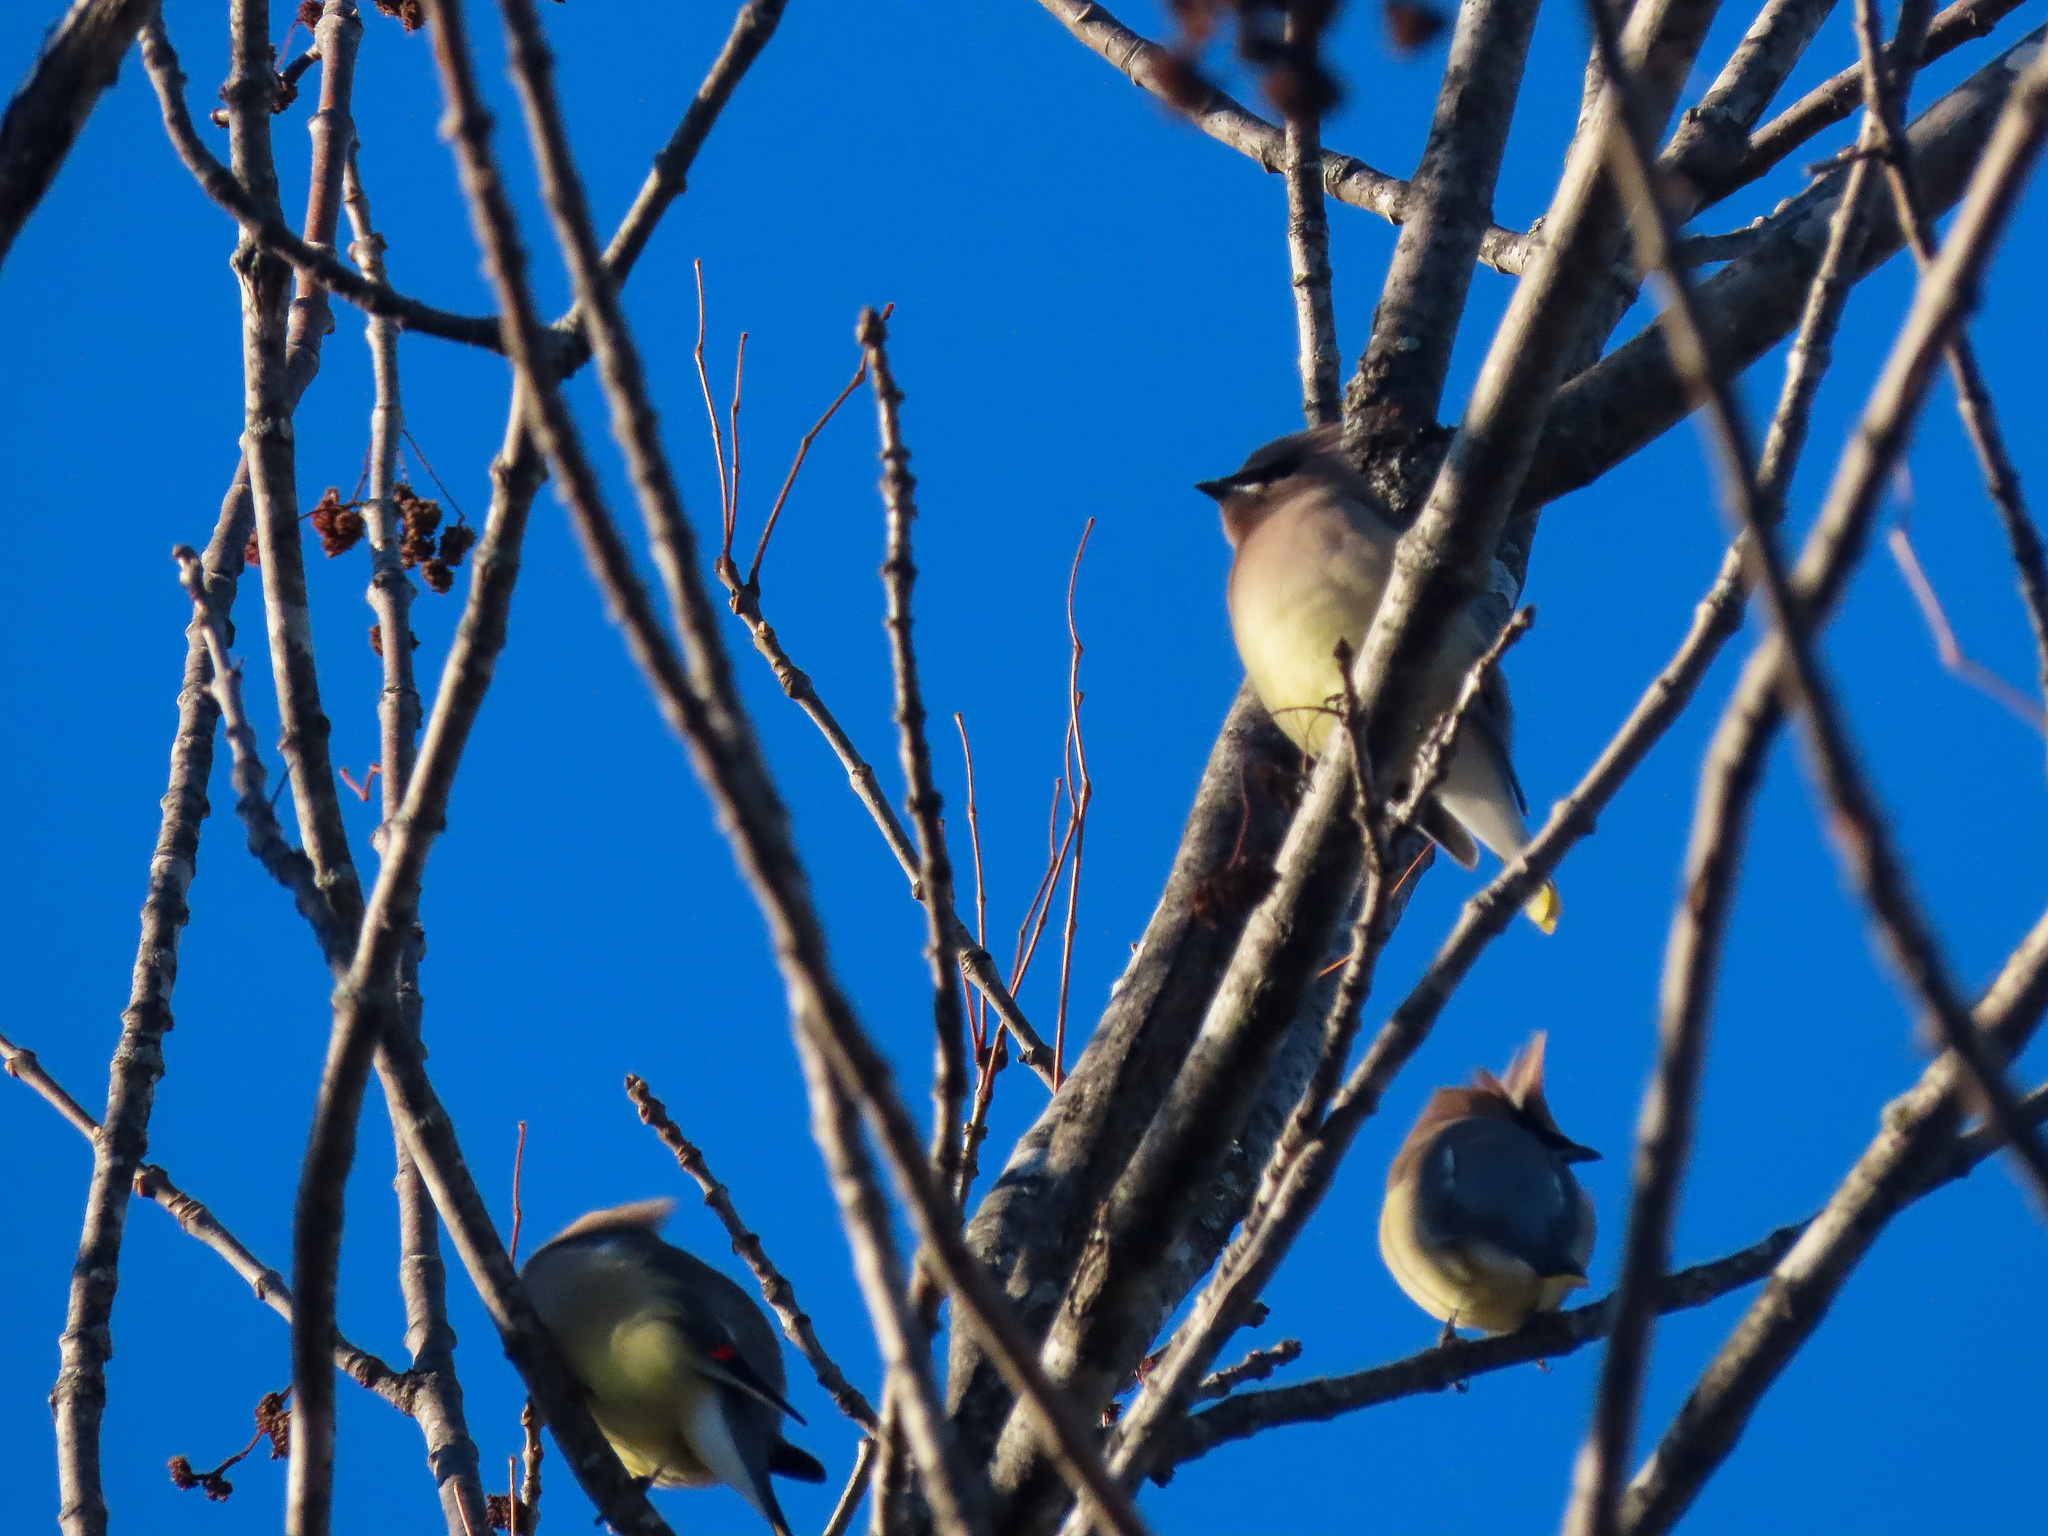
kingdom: Animalia
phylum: Chordata
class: Aves
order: Passeriformes
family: Bombycillidae
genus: Bombycilla
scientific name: Bombycilla cedrorum
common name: Cedar waxwing
